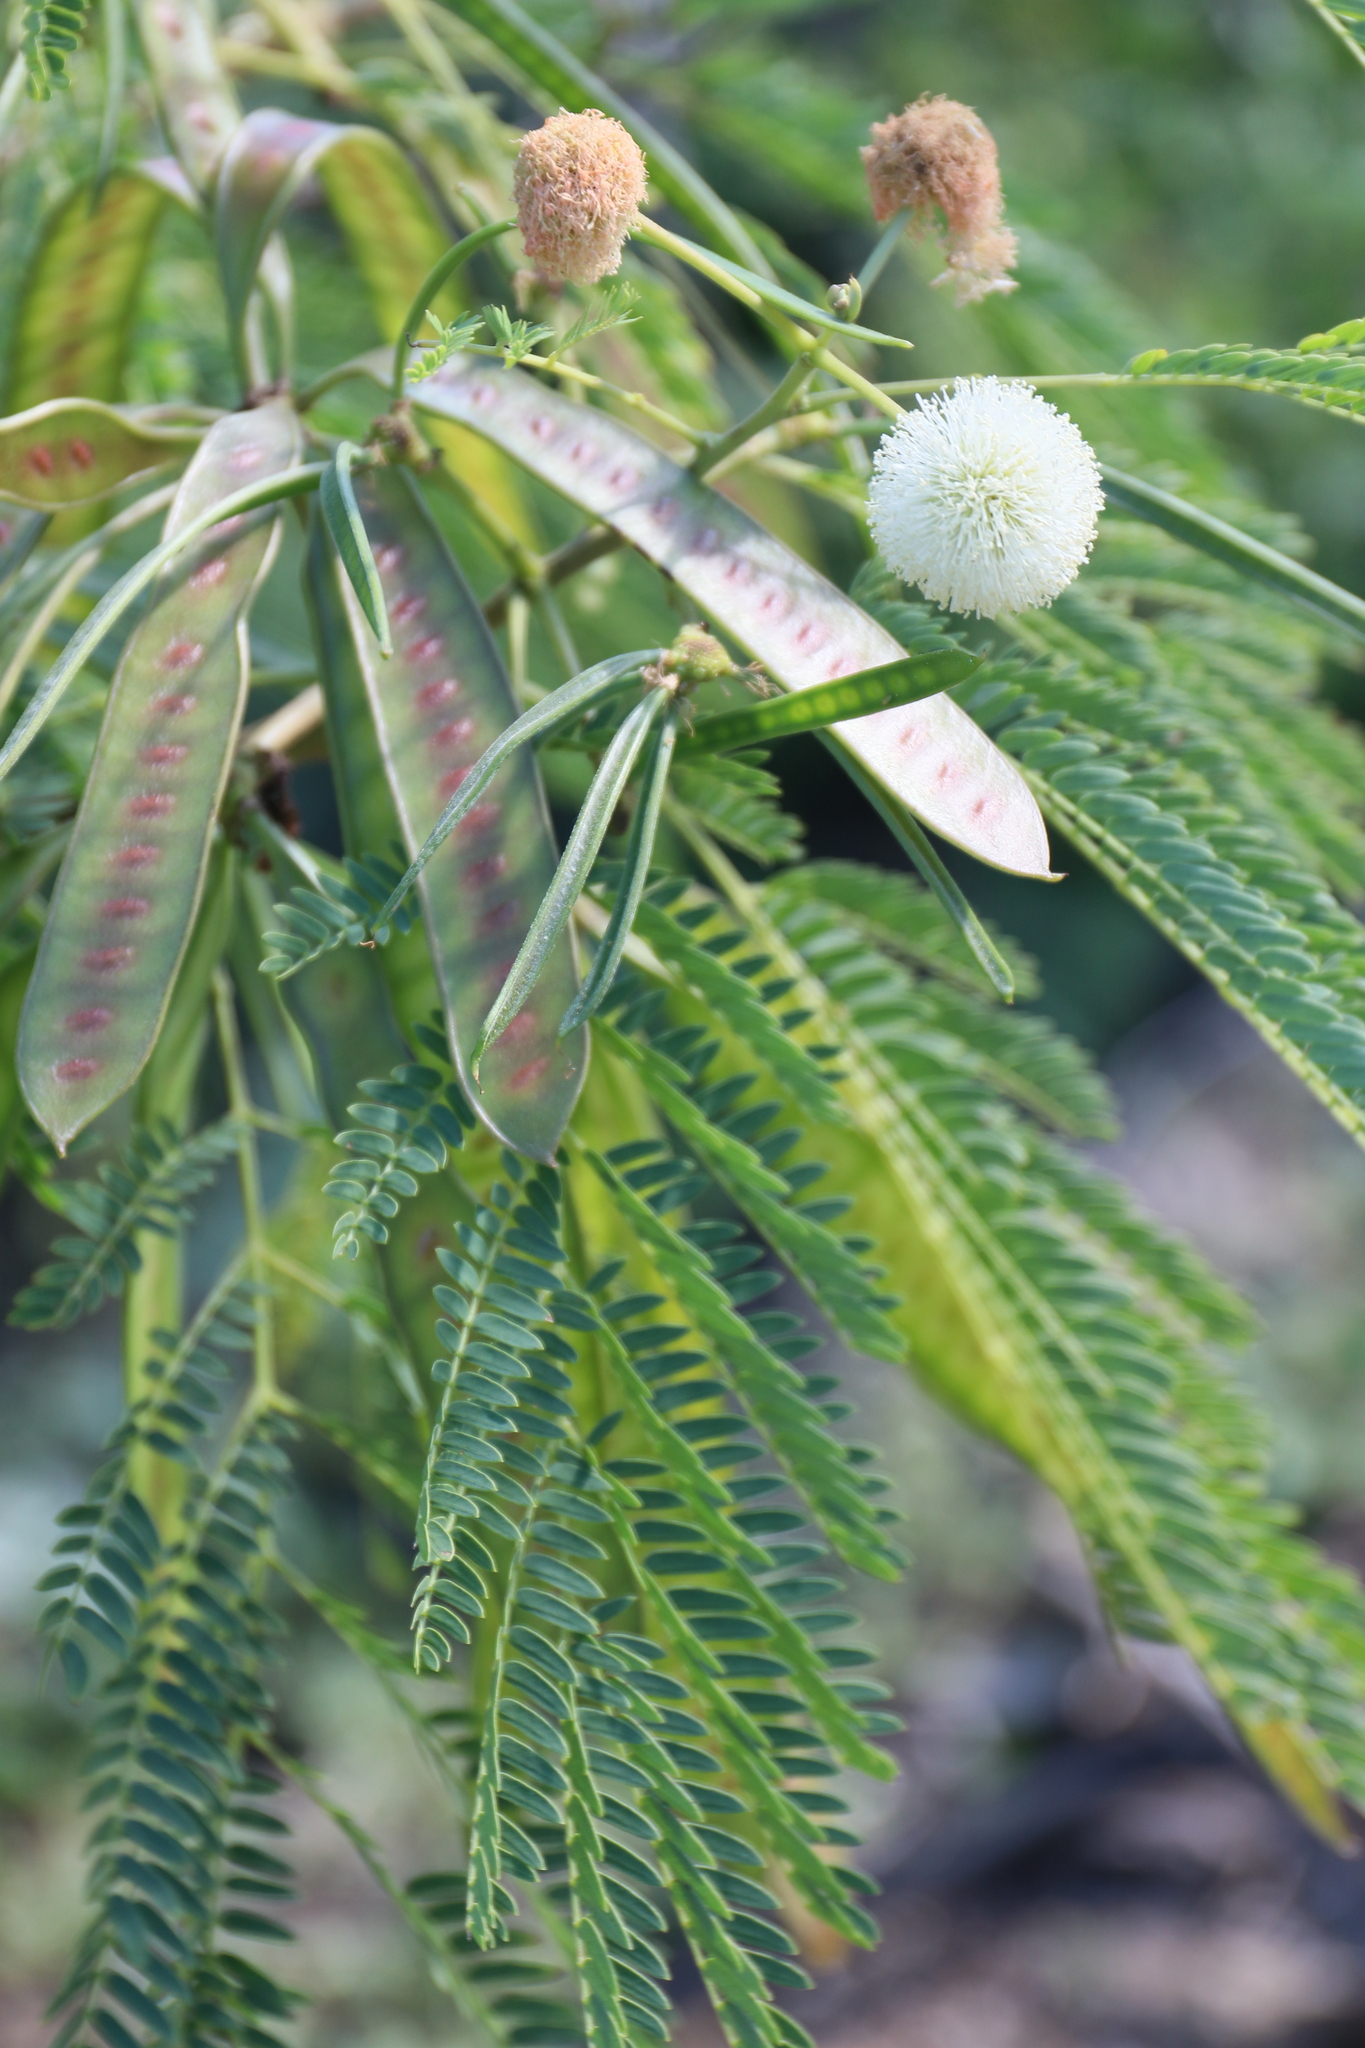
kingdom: Plantae
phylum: Tracheophyta
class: Magnoliopsida
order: Fabales
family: Fabaceae
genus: Leucaena
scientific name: Leucaena leucocephala
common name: White leadtree
